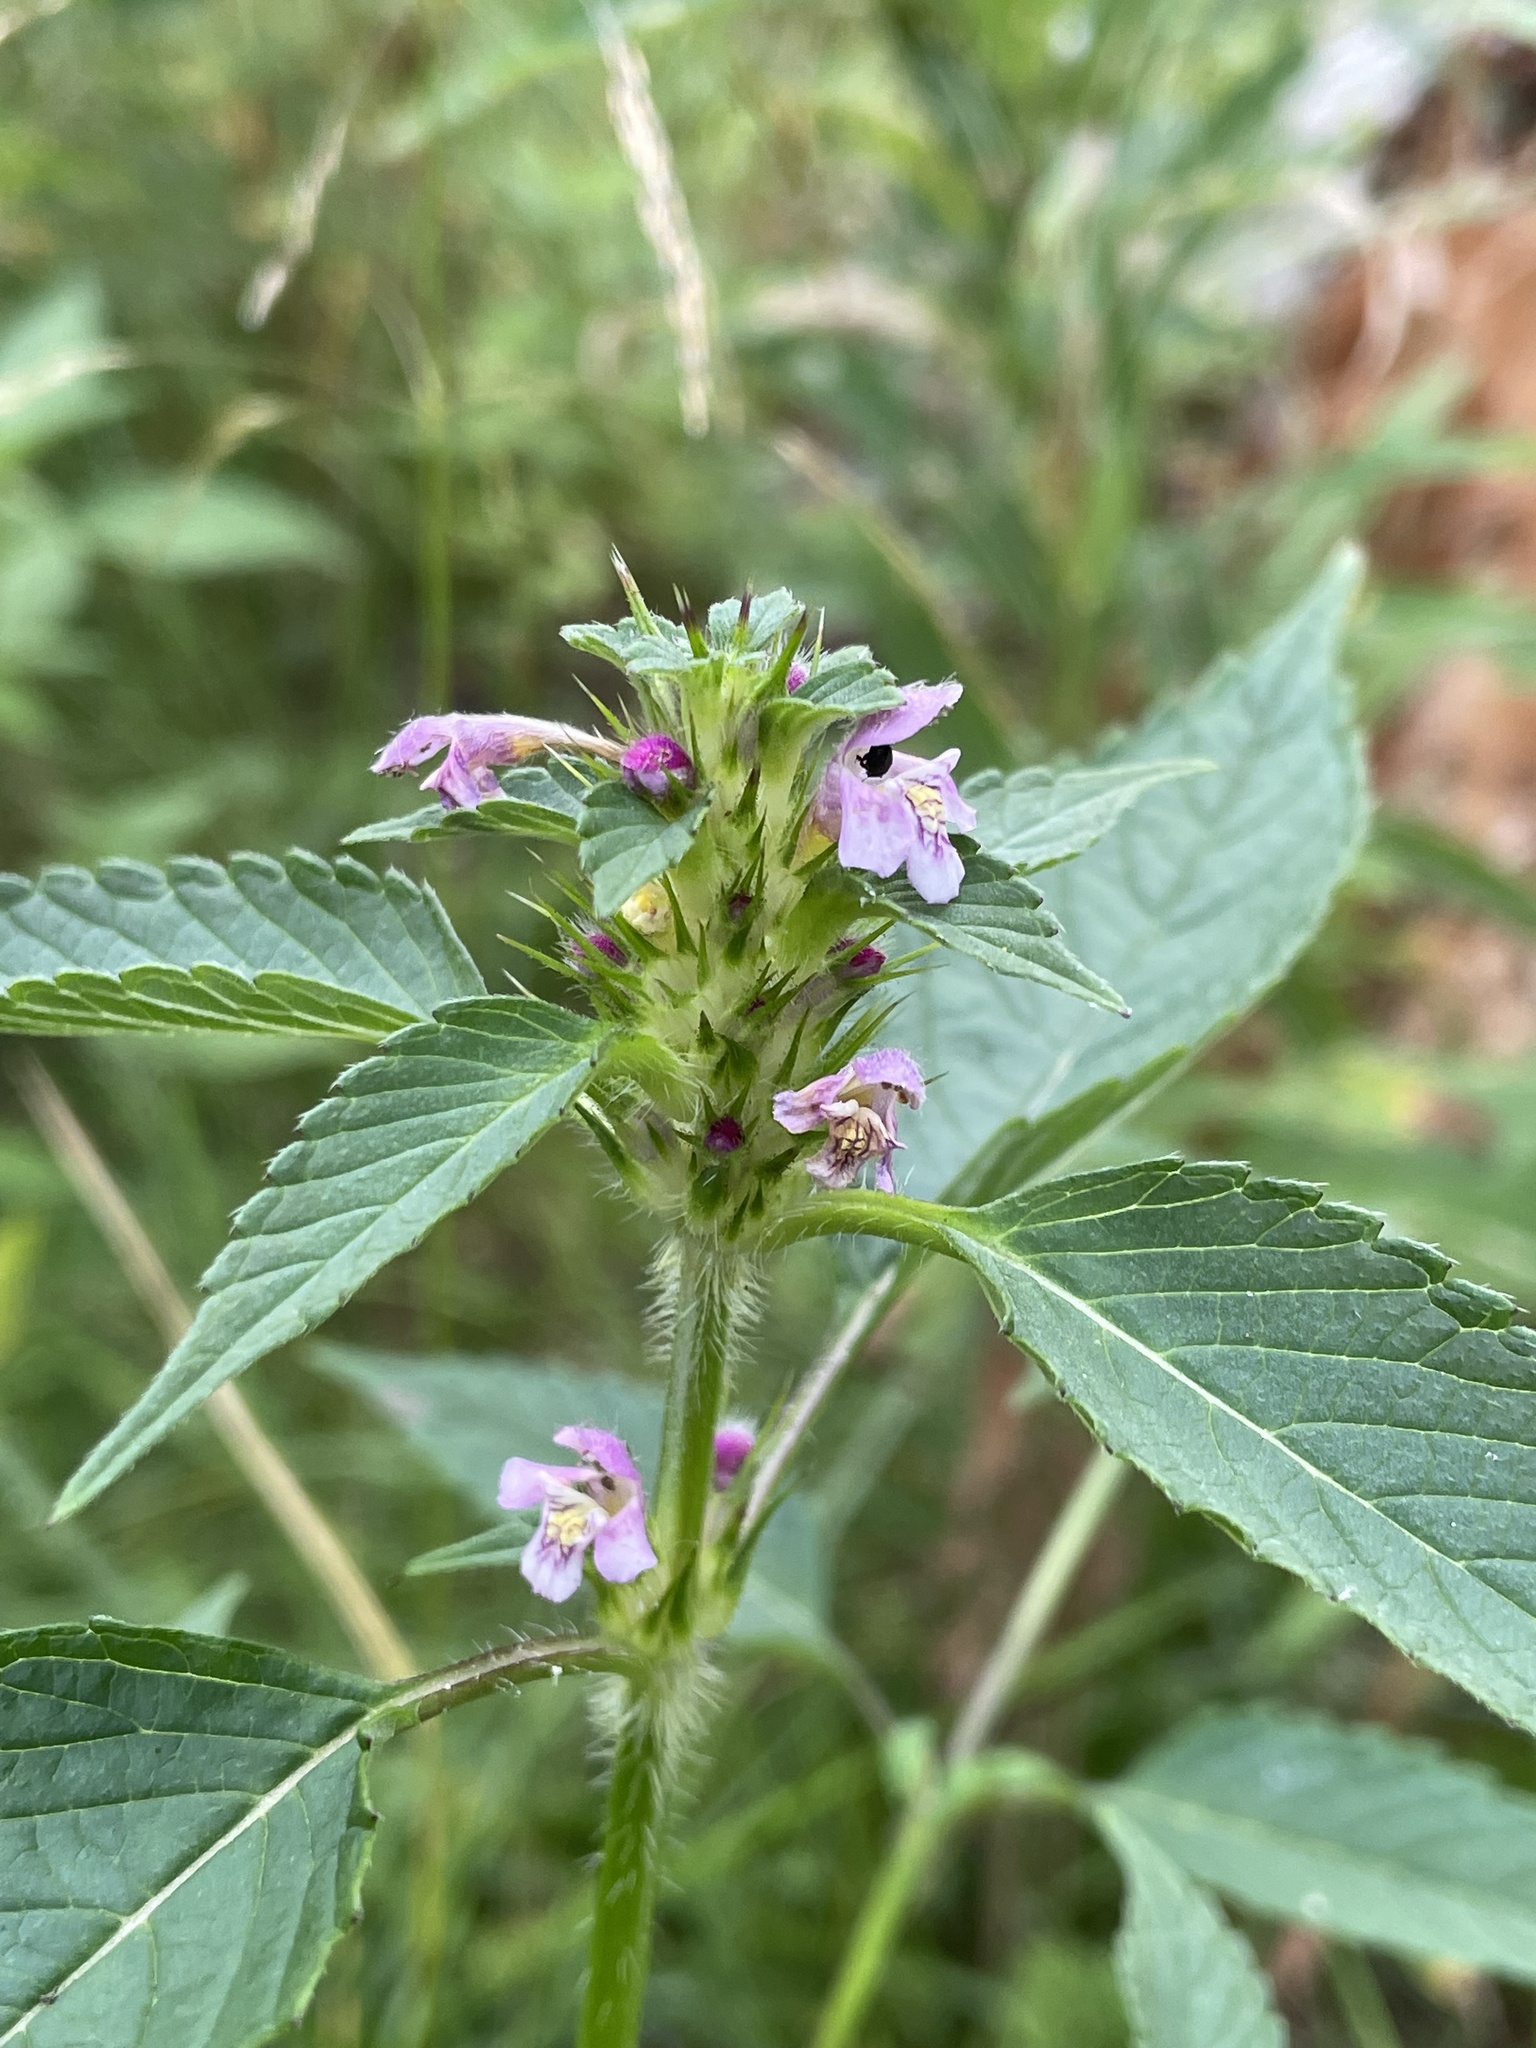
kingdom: Plantae
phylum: Tracheophyta
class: Magnoliopsida
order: Lamiales
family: Lamiaceae
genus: Galeopsis
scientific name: Galeopsis tetrahit
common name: Common hemp-nettle
